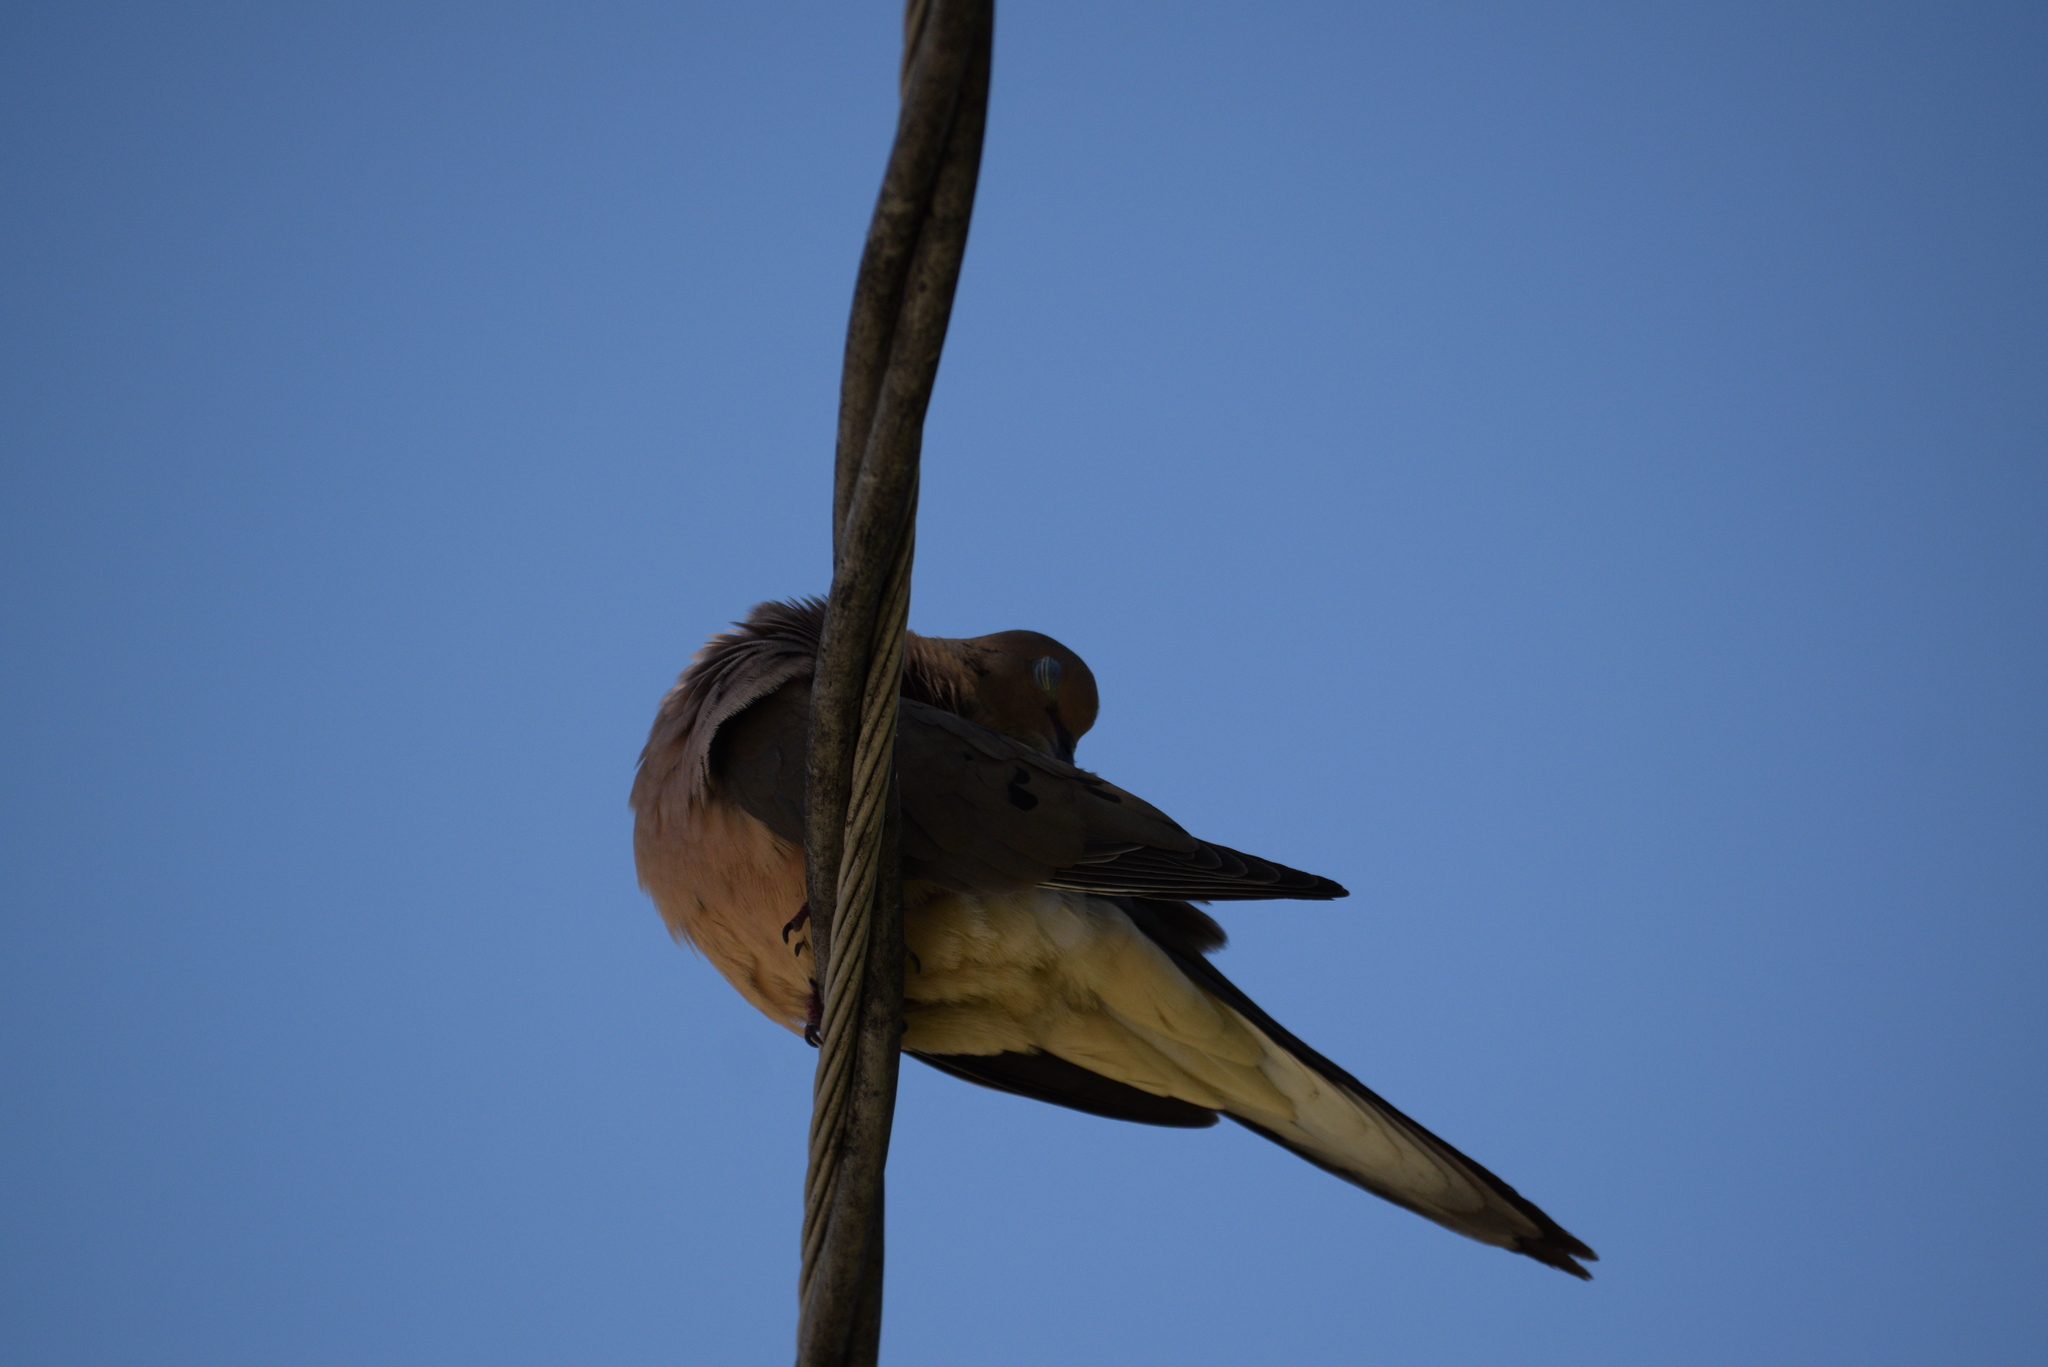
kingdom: Animalia
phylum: Chordata
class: Aves
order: Columbiformes
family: Columbidae
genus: Zenaida
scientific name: Zenaida macroura
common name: Mourning dove
